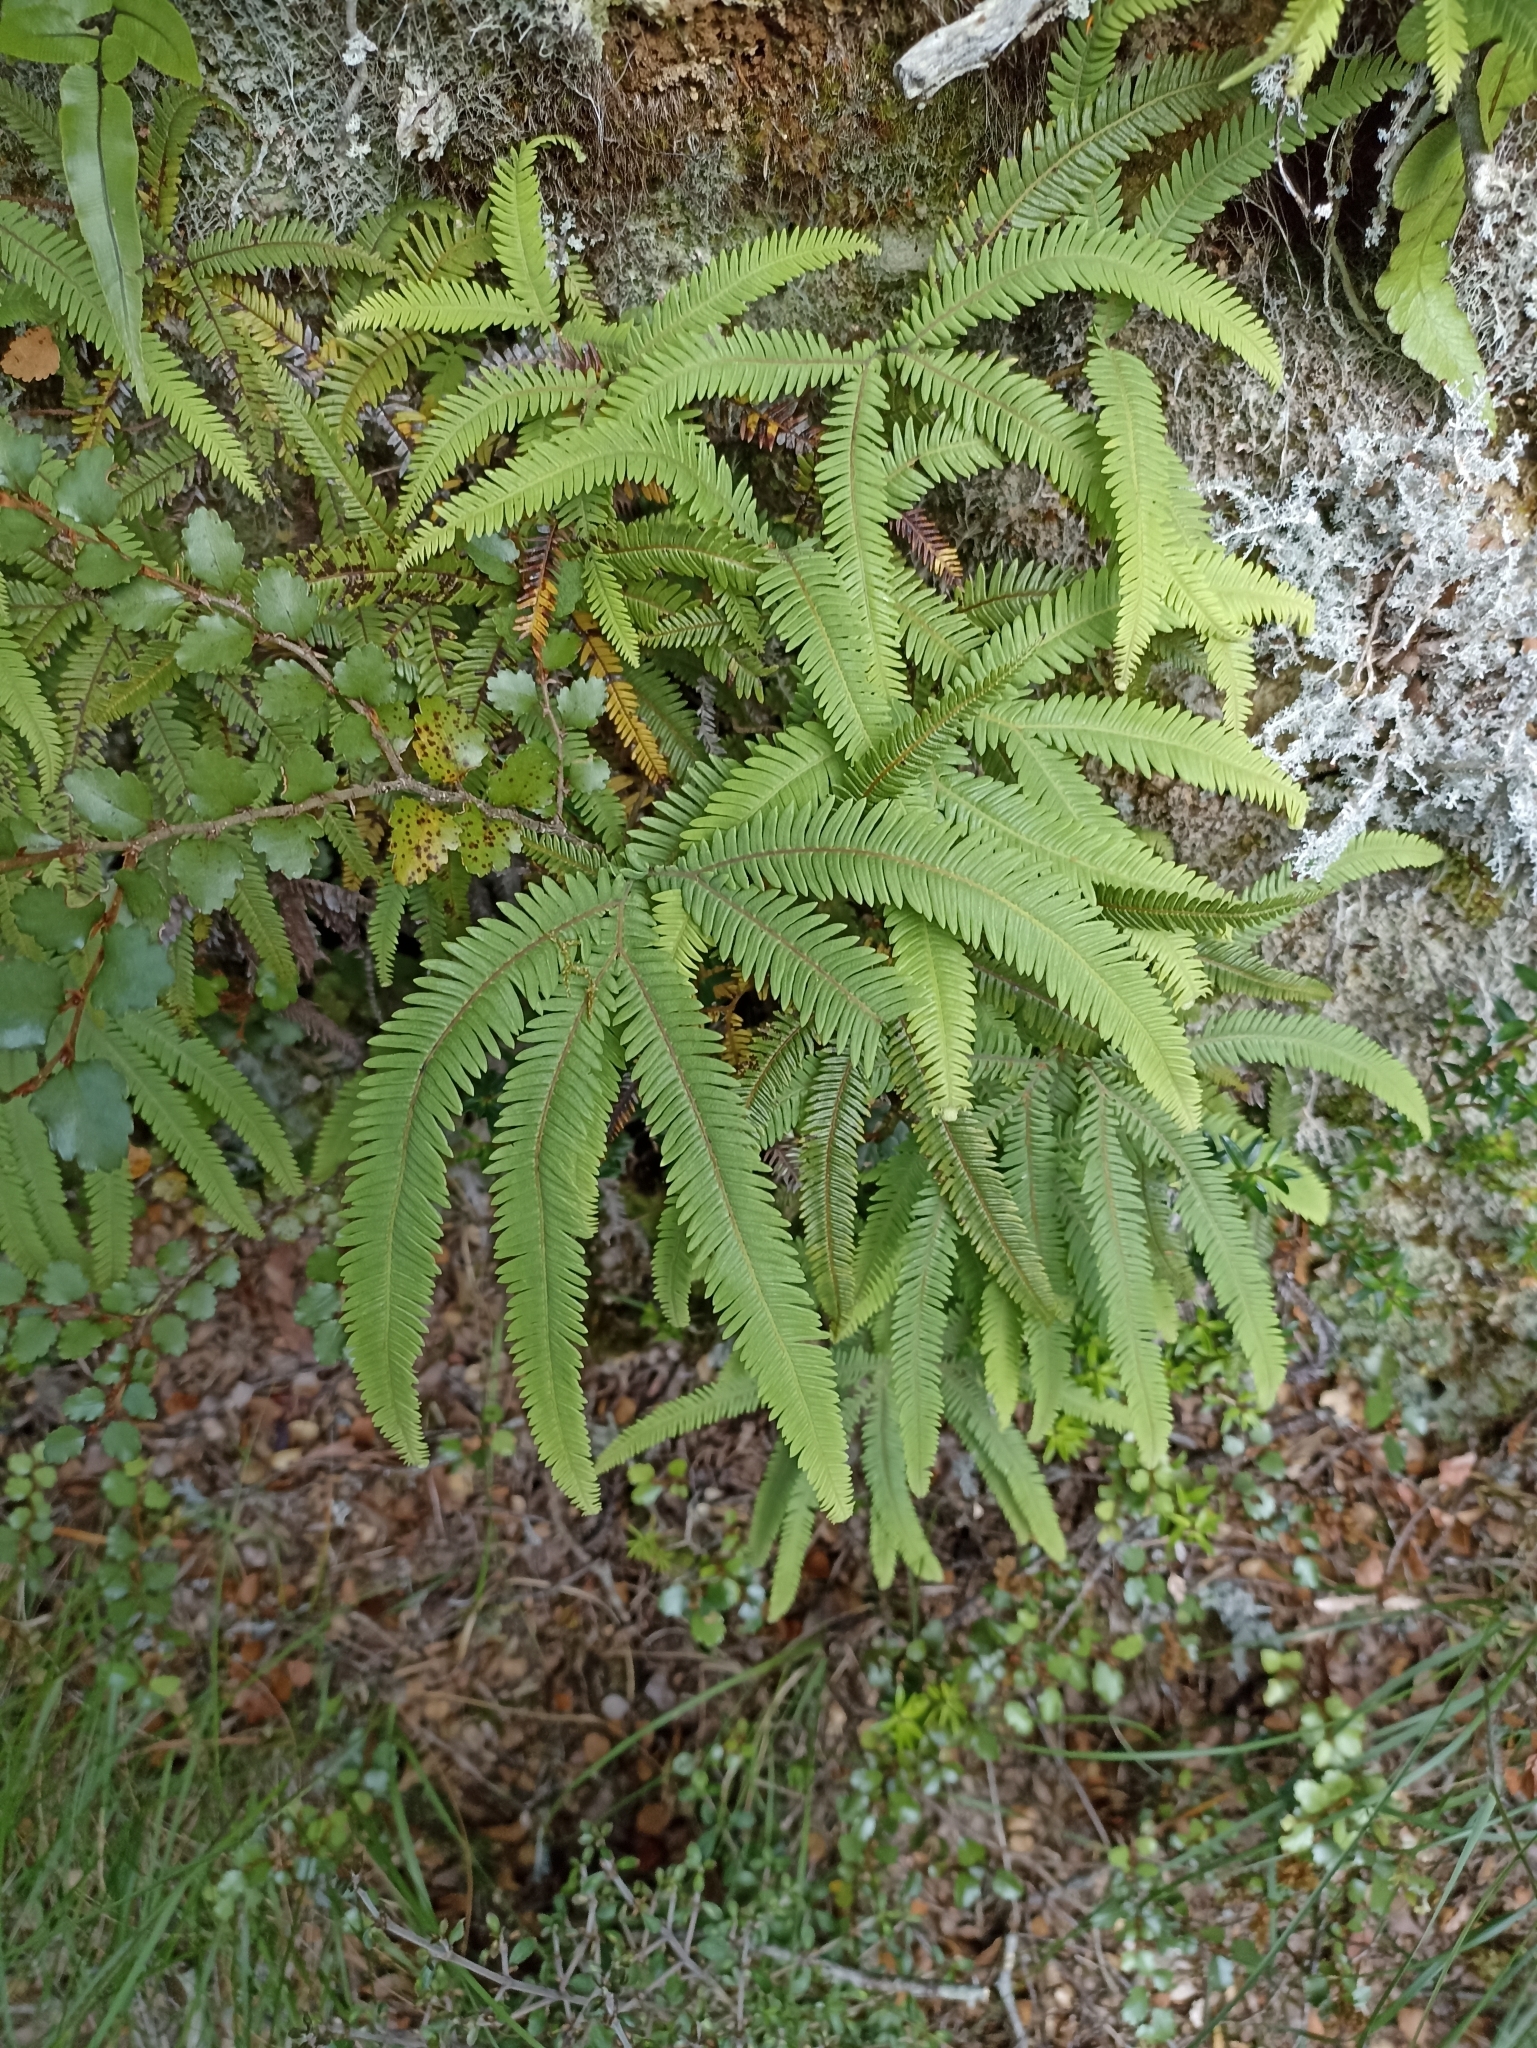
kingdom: Plantae
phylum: Tracheophyta
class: Polypodiopsida
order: Gleicheniales
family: Gleicheniaceae
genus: Sticherus
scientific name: Sticherus cunninghamii
